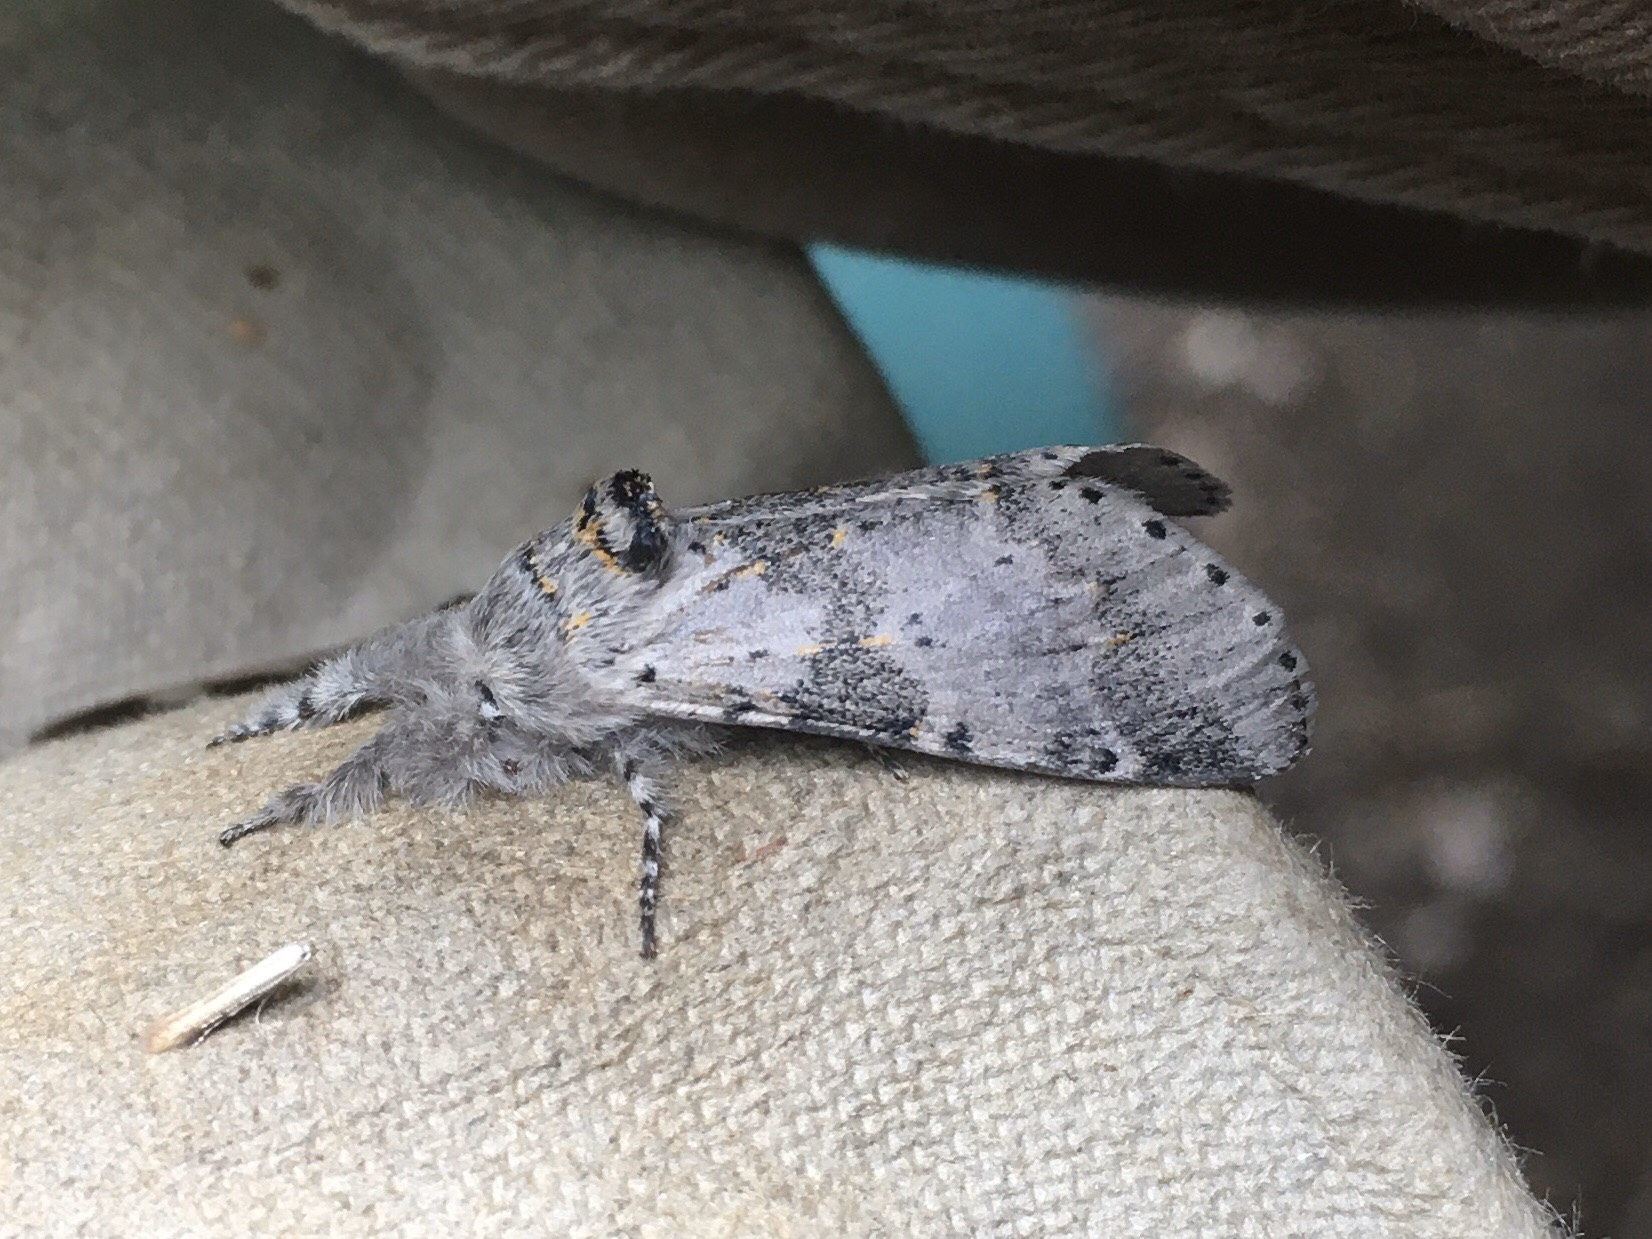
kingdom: Animalia
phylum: Arthropoda
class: Insecta
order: Lepidoptera
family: Notodontidae
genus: Furcula
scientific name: Furcula cinerea
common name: Gray furcula
